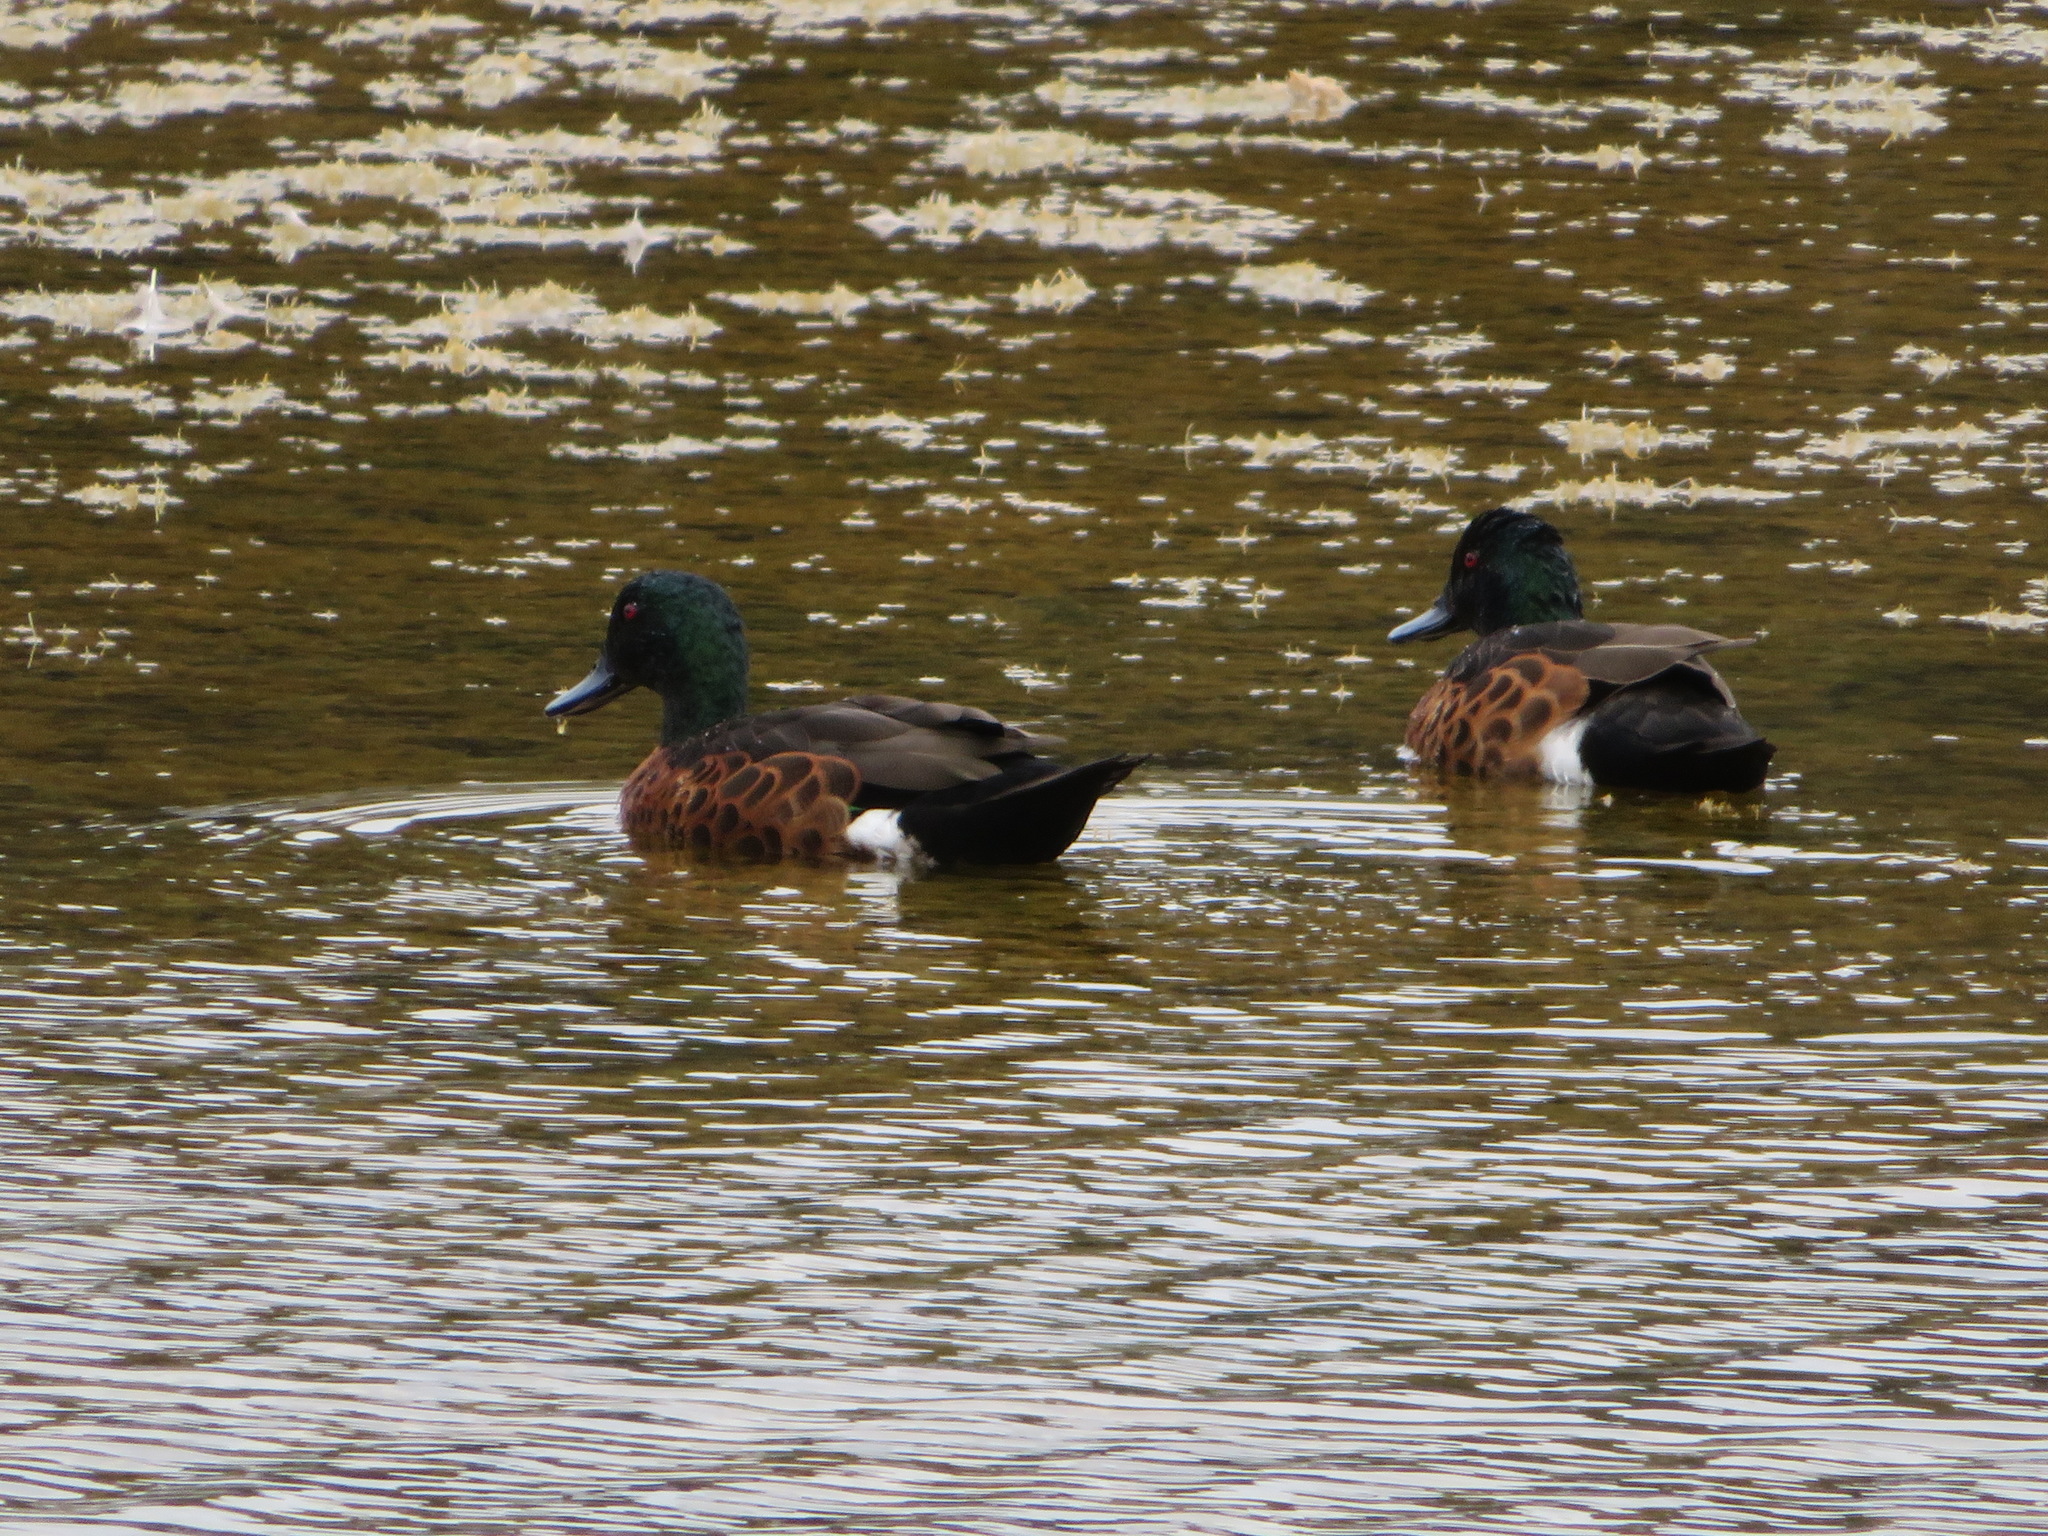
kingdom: Animalia
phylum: Chordata
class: Aves
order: Anseriformes
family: Anatidae
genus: Anas
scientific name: Anas castanea
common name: Chestnut teal
